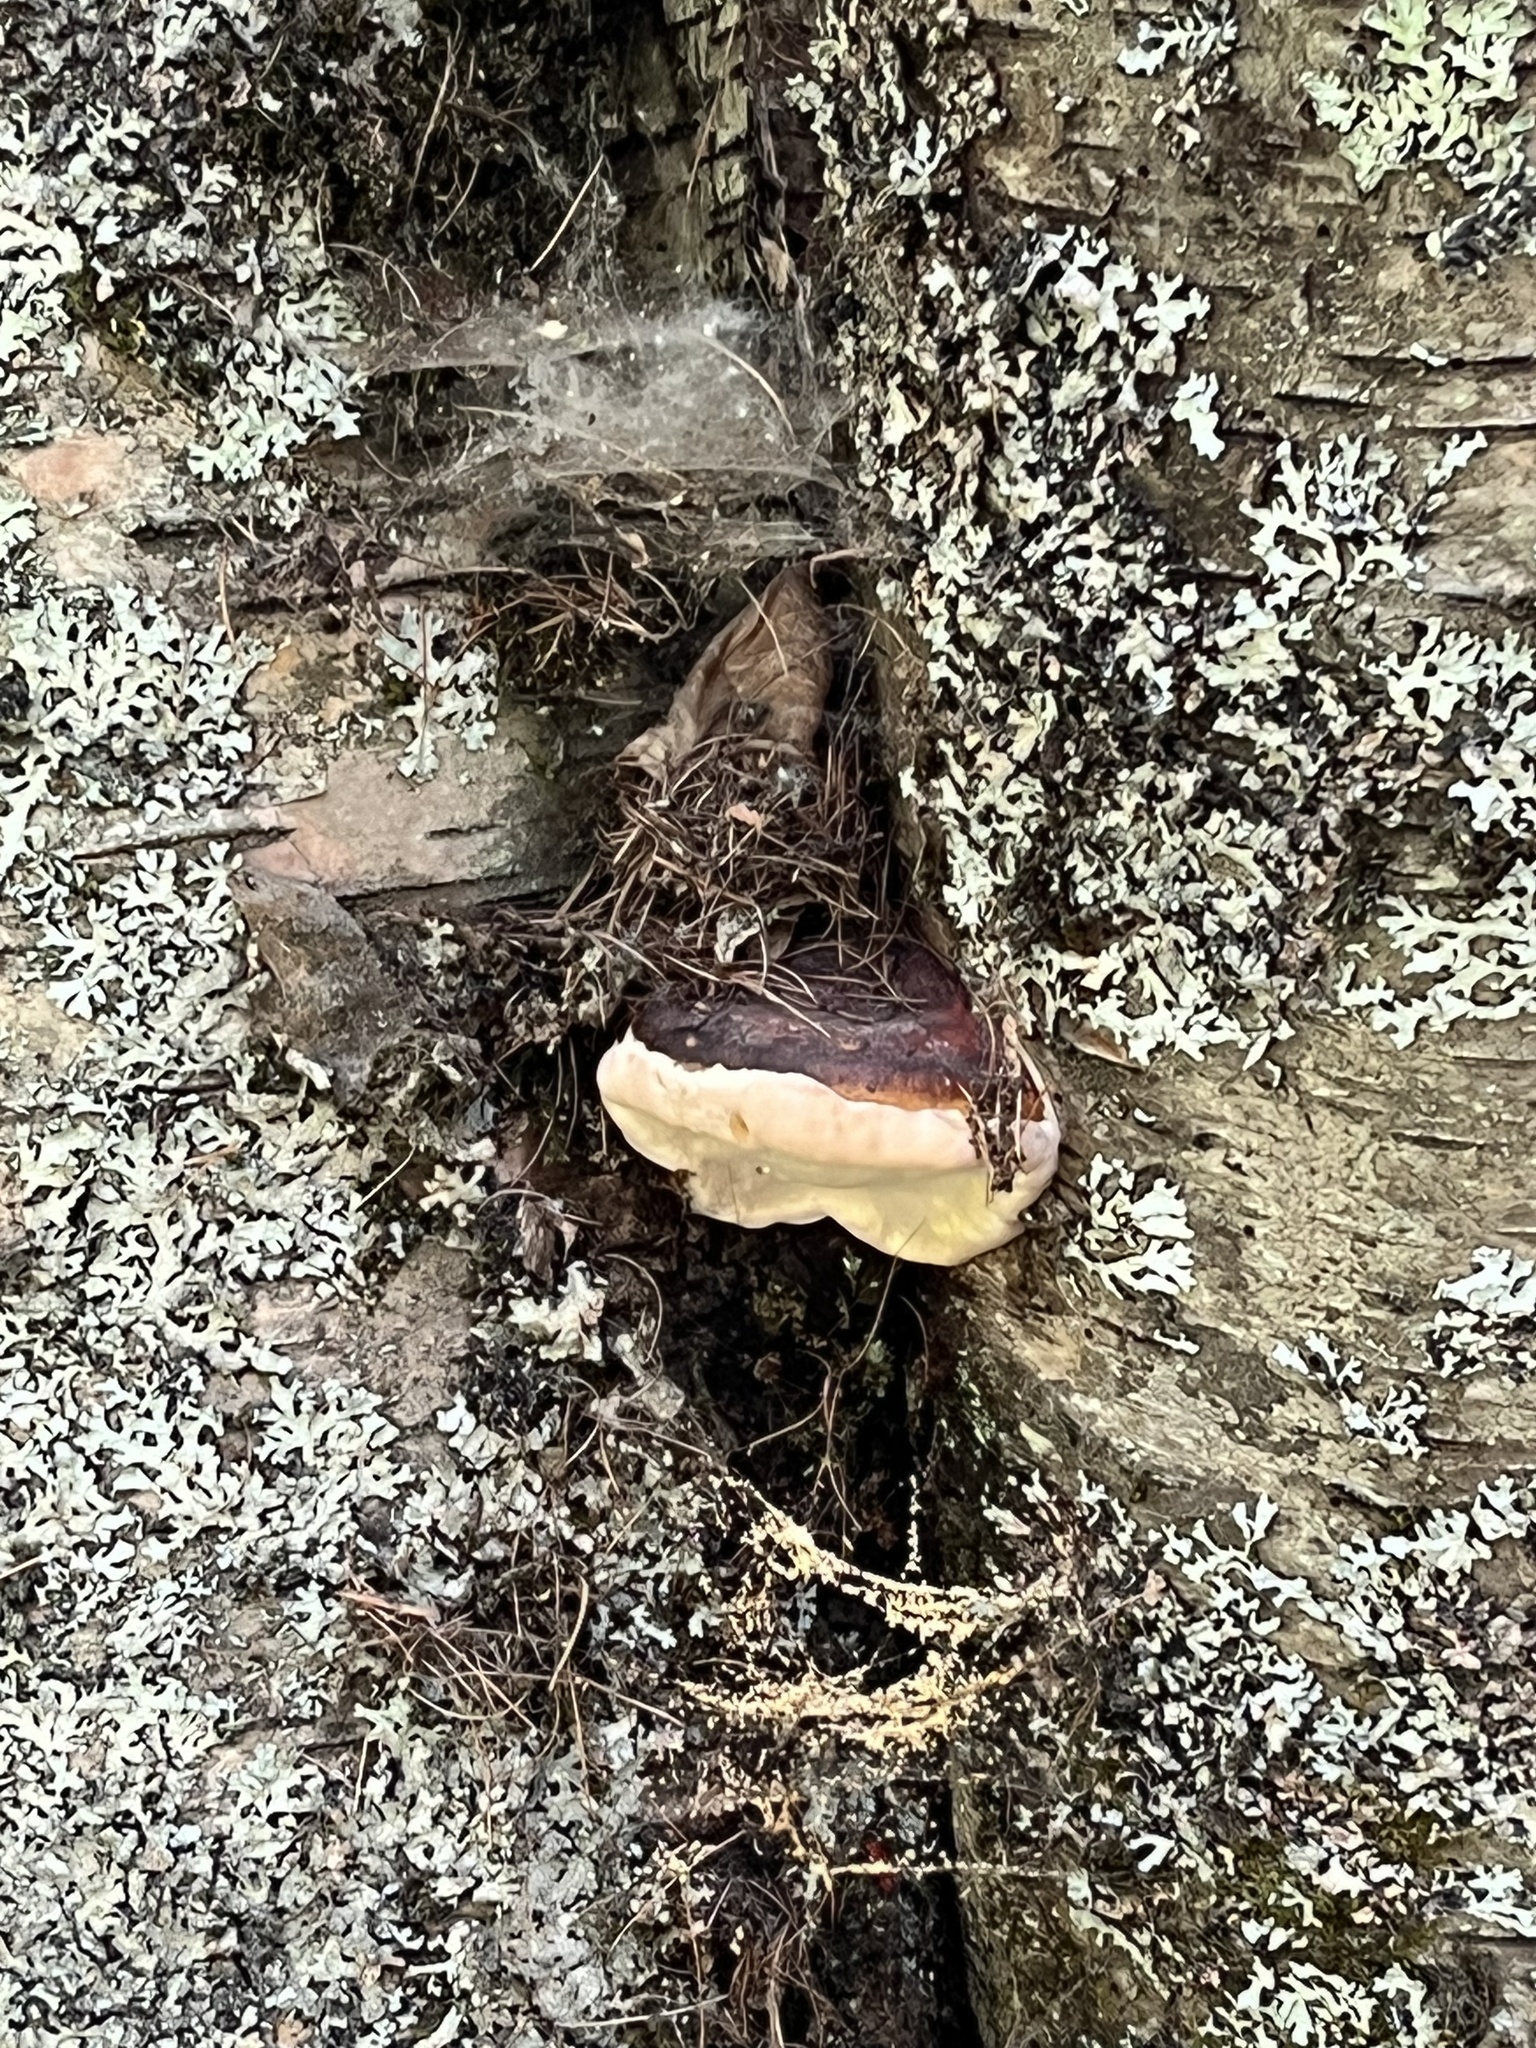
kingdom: Fungi
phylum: Basidiomycota
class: Agaricomycetes
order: Polyporales
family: Fomitopsidaceae
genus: Fomitopsis
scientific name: Fomitopsis ochracea
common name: American brown fomitopsis
